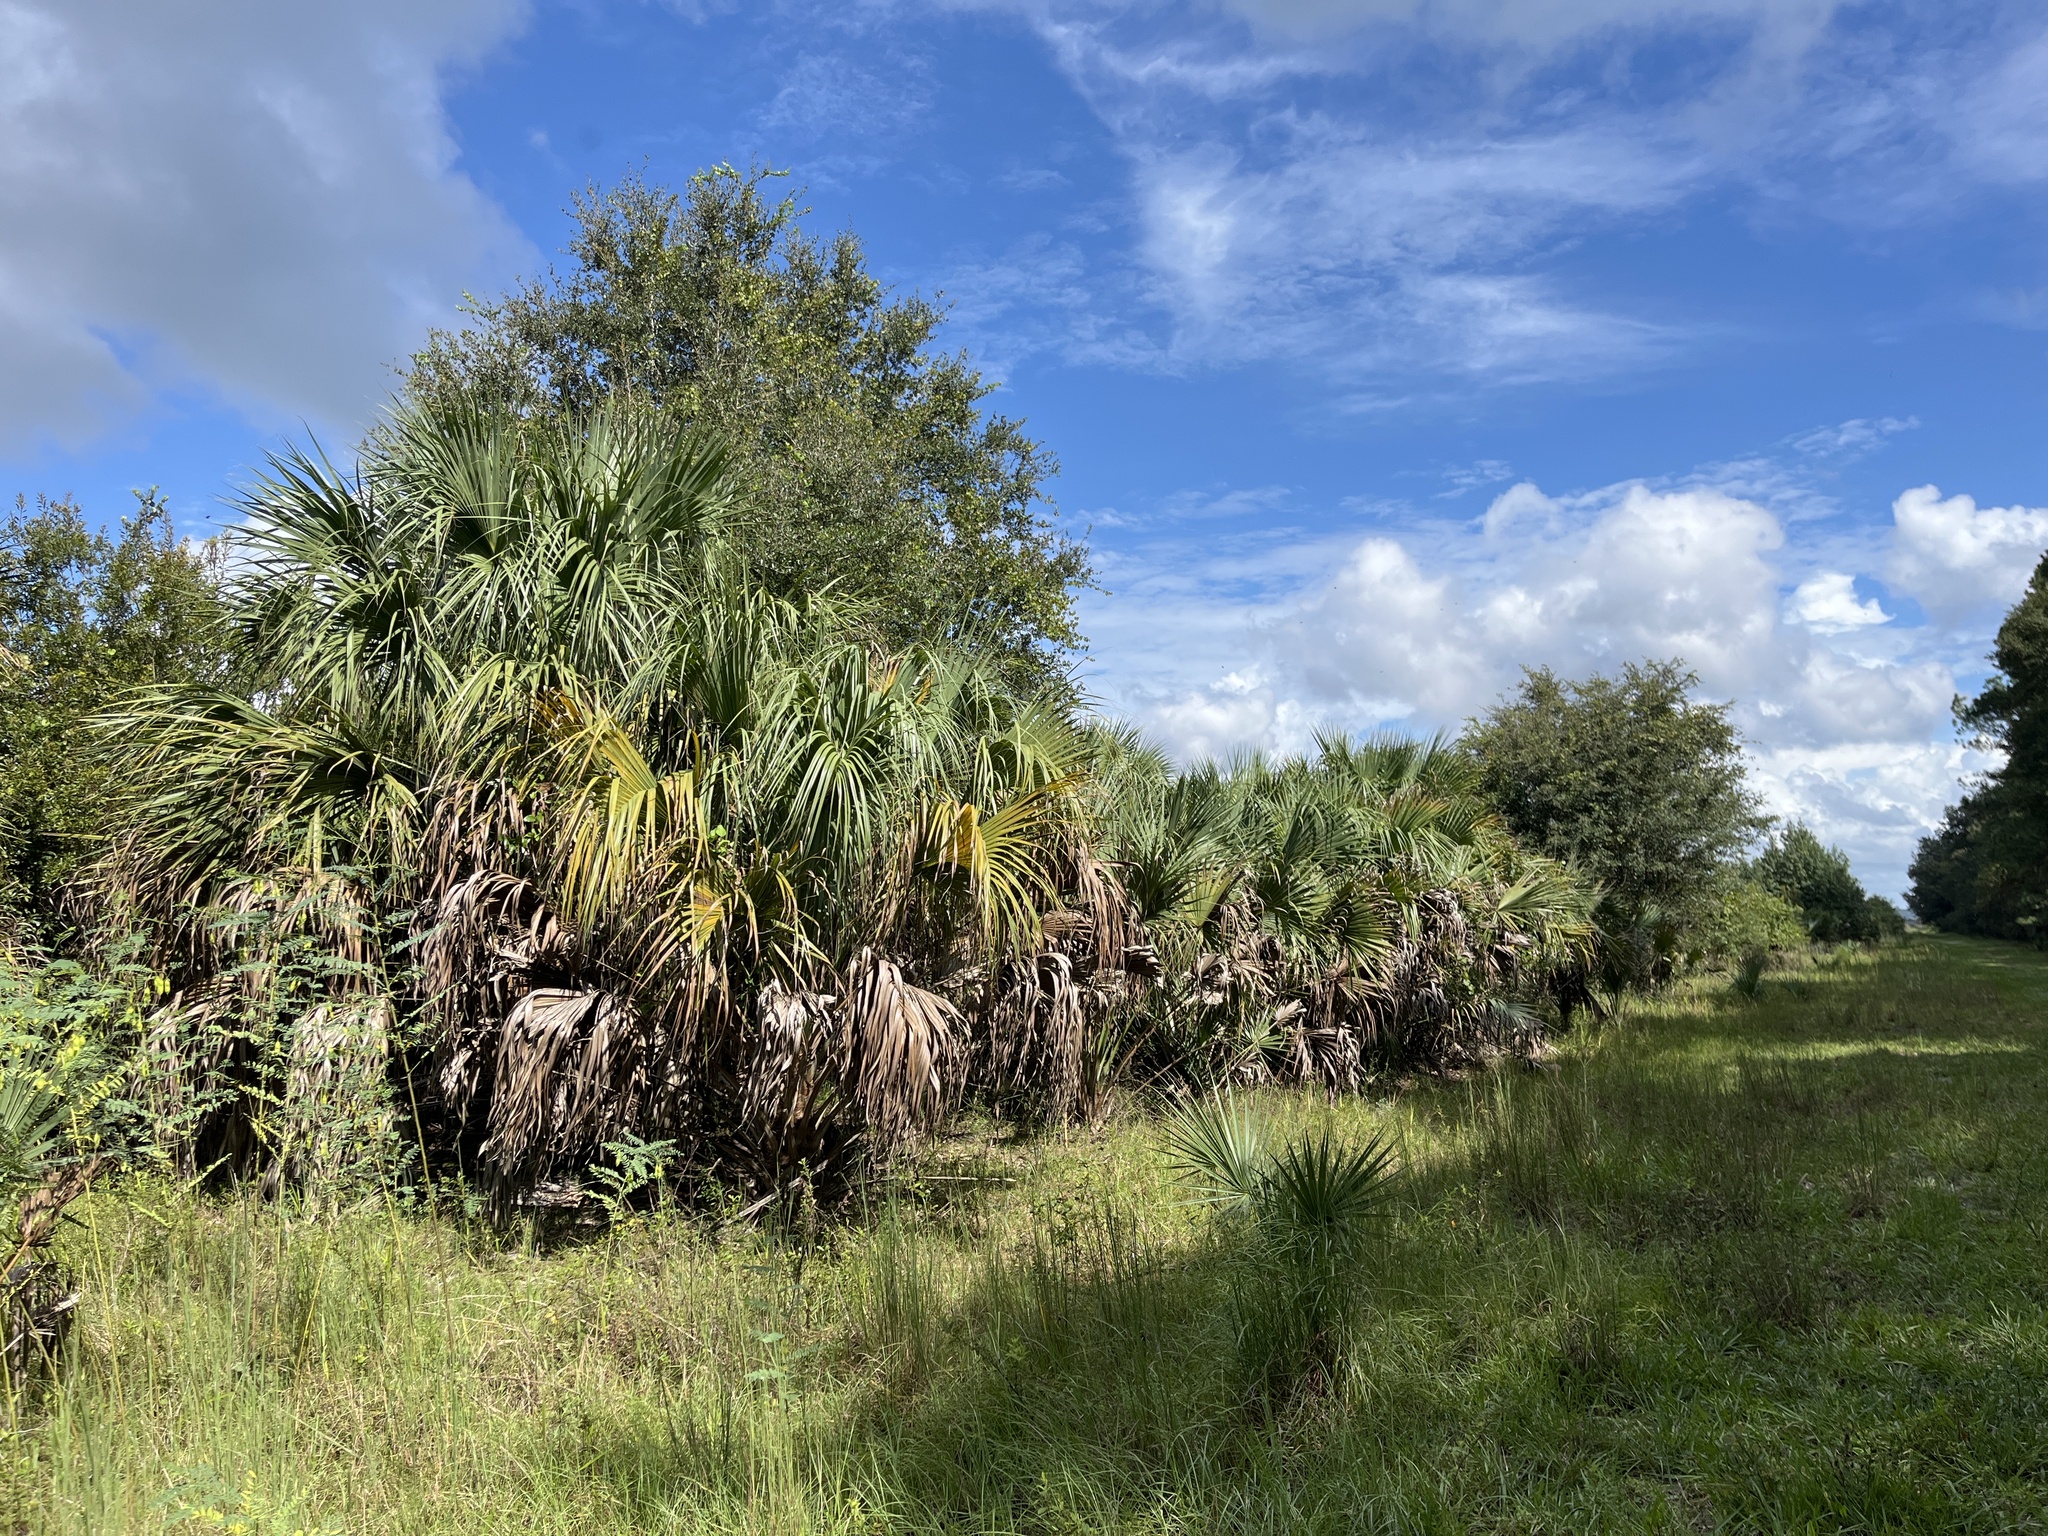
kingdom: Plantae
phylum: Tracheophyta
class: Liliopsida
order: Arecales
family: Arecaceae
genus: Sabal
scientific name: Sabal palmetto
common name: Blue palmetto
